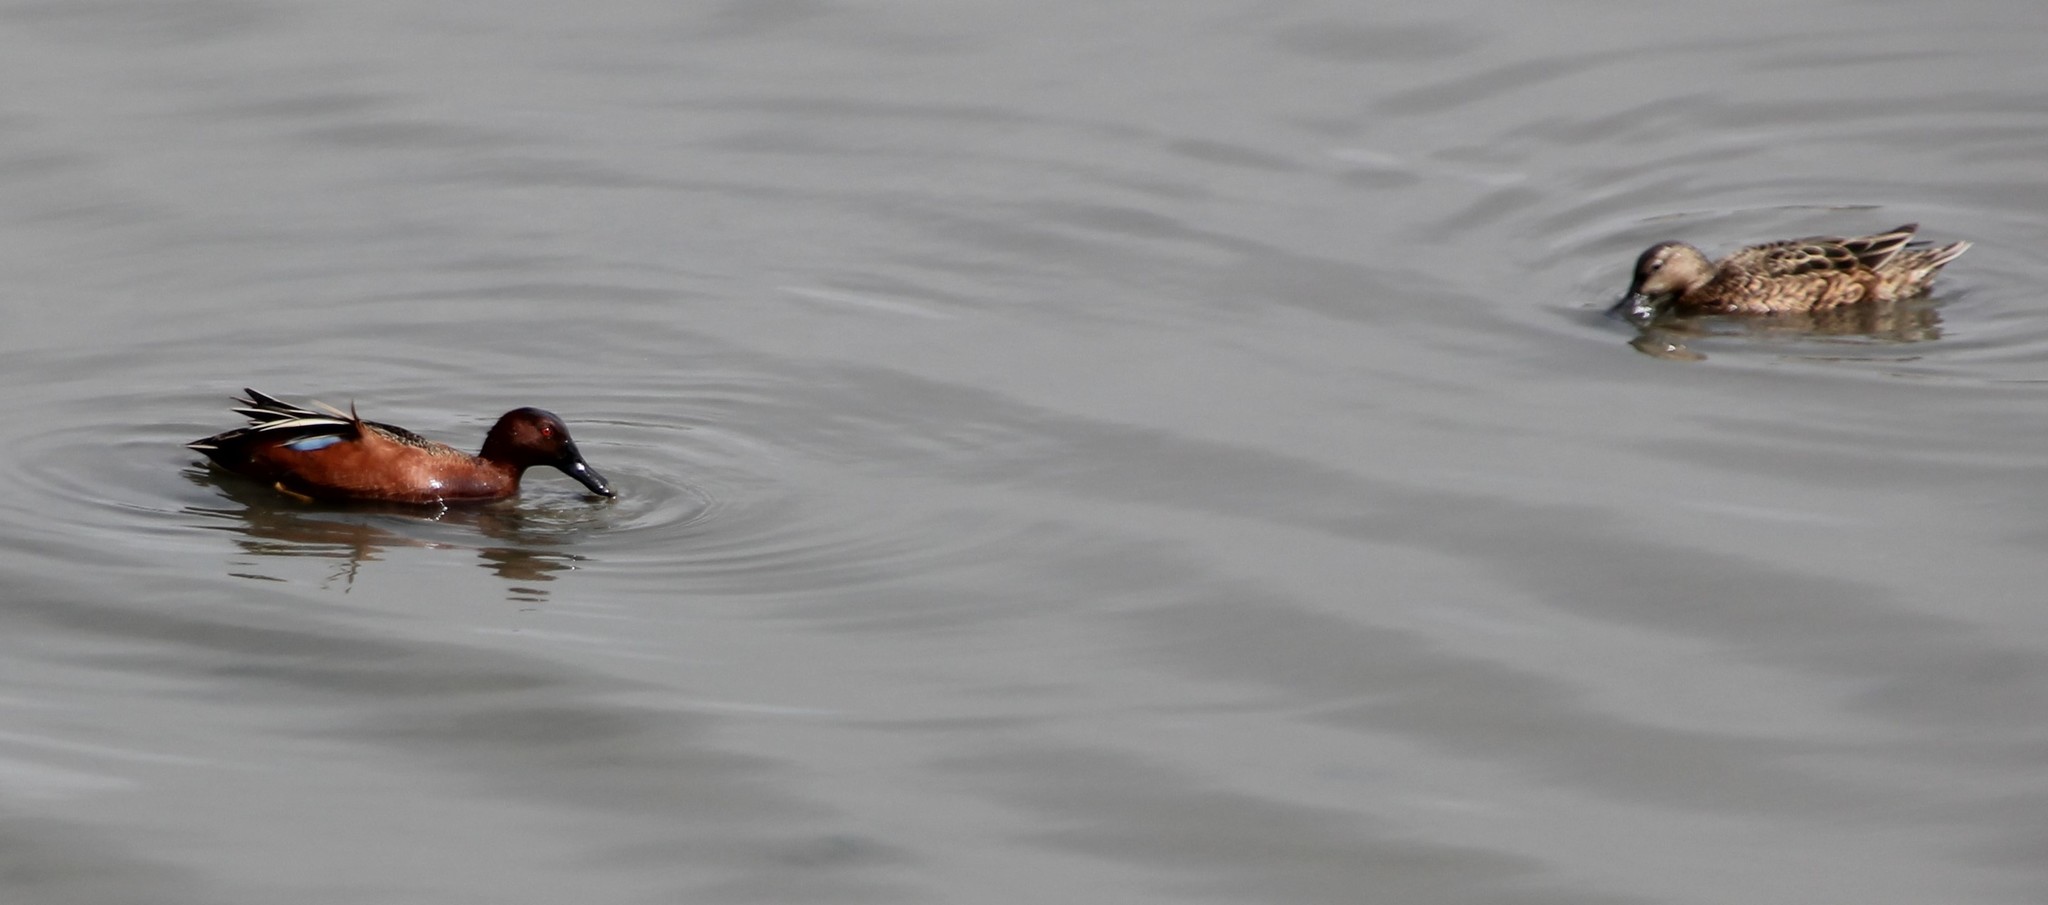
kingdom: Animalia
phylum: Chordata
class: Aves
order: Anseriformes
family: Anatidae
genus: Spatula
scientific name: Spatula cyanoptera
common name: Cinnamon teal
